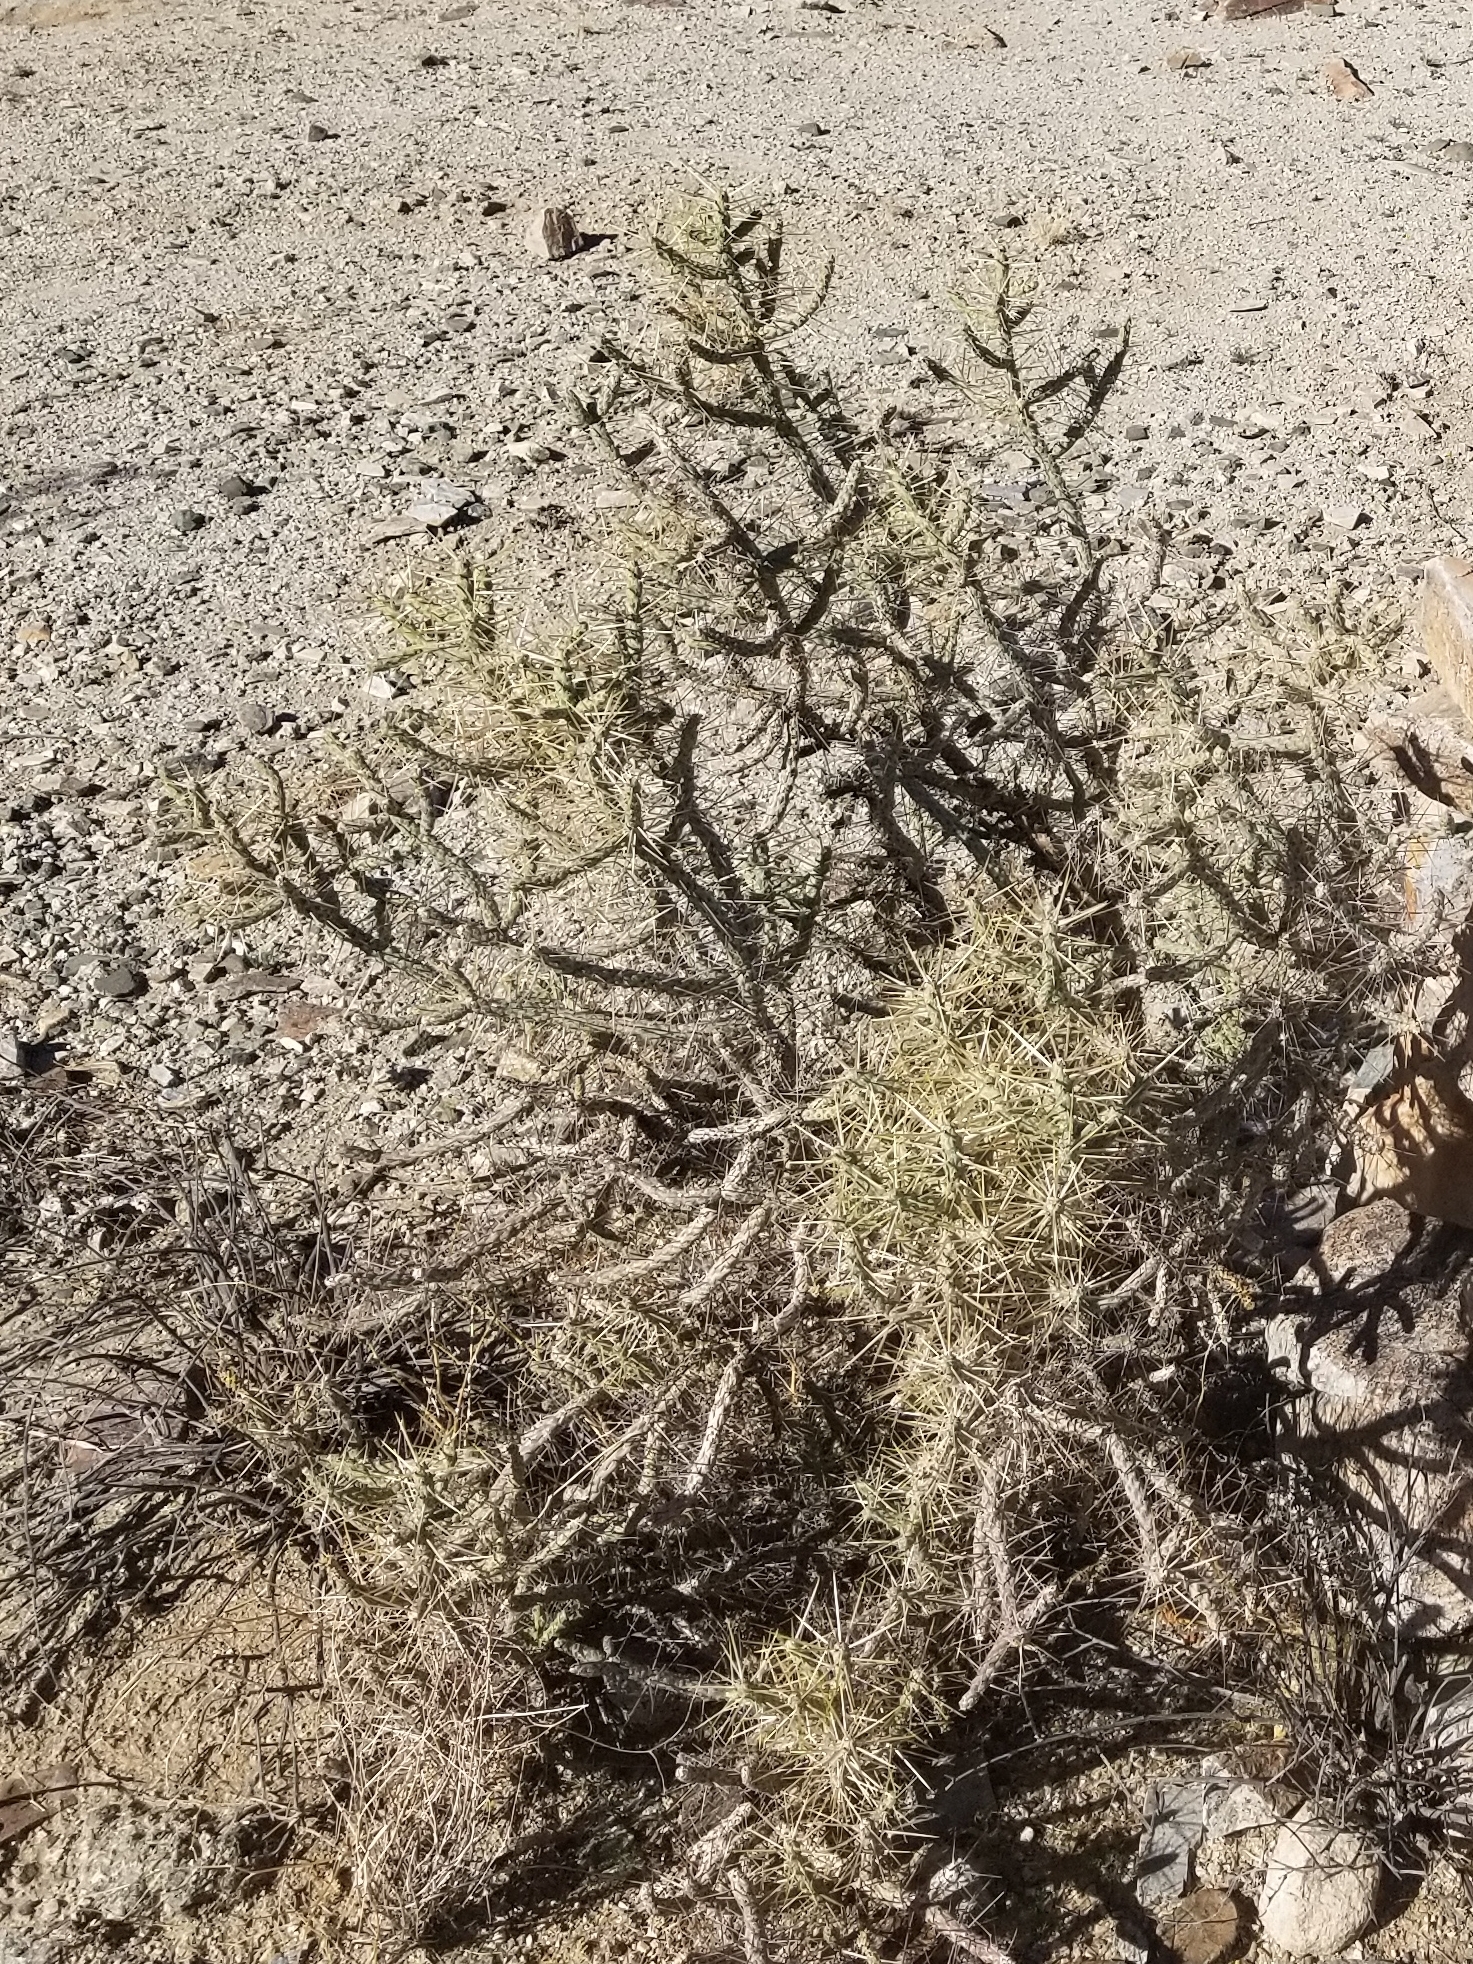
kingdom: Plantae
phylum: Tracheophyta
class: Magnoliopsida
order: Caryophyllales
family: Cactaceae
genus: Cylindropuntia
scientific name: Cylindropuntia ramosissima
